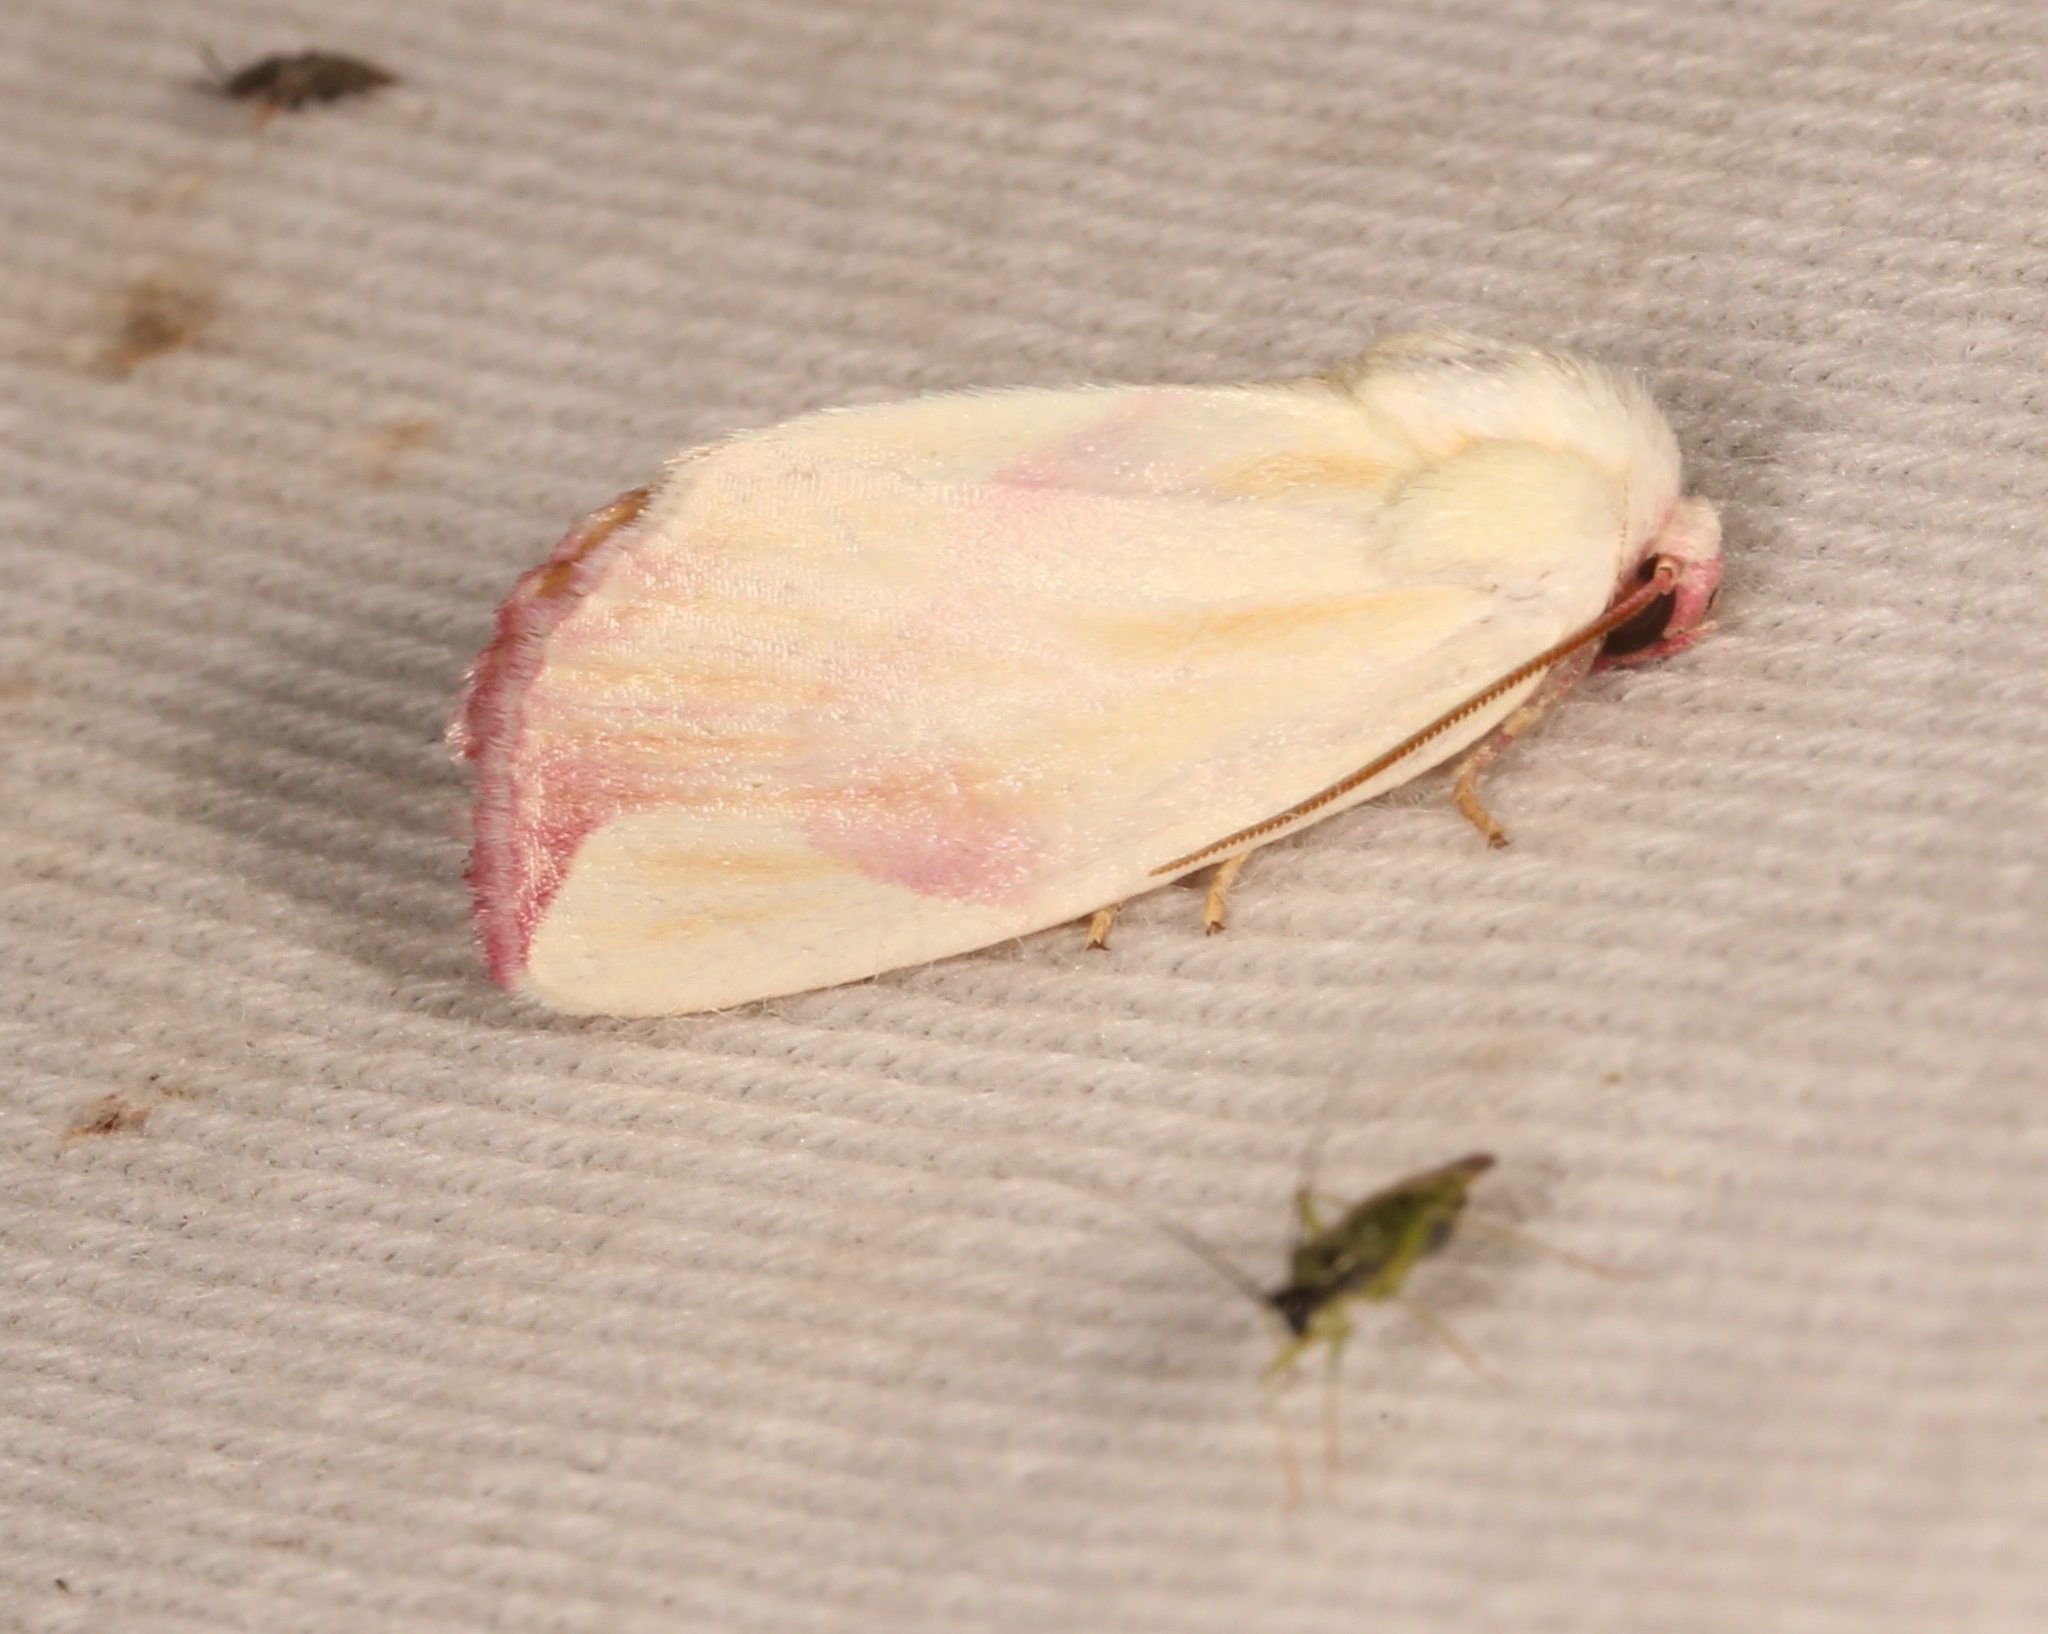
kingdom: Animalia
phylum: Arthropoda
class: Insecta
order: Lepidoptera
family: Noctuidae
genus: Thurberiphaga
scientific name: Thurberiphaga diffusa
